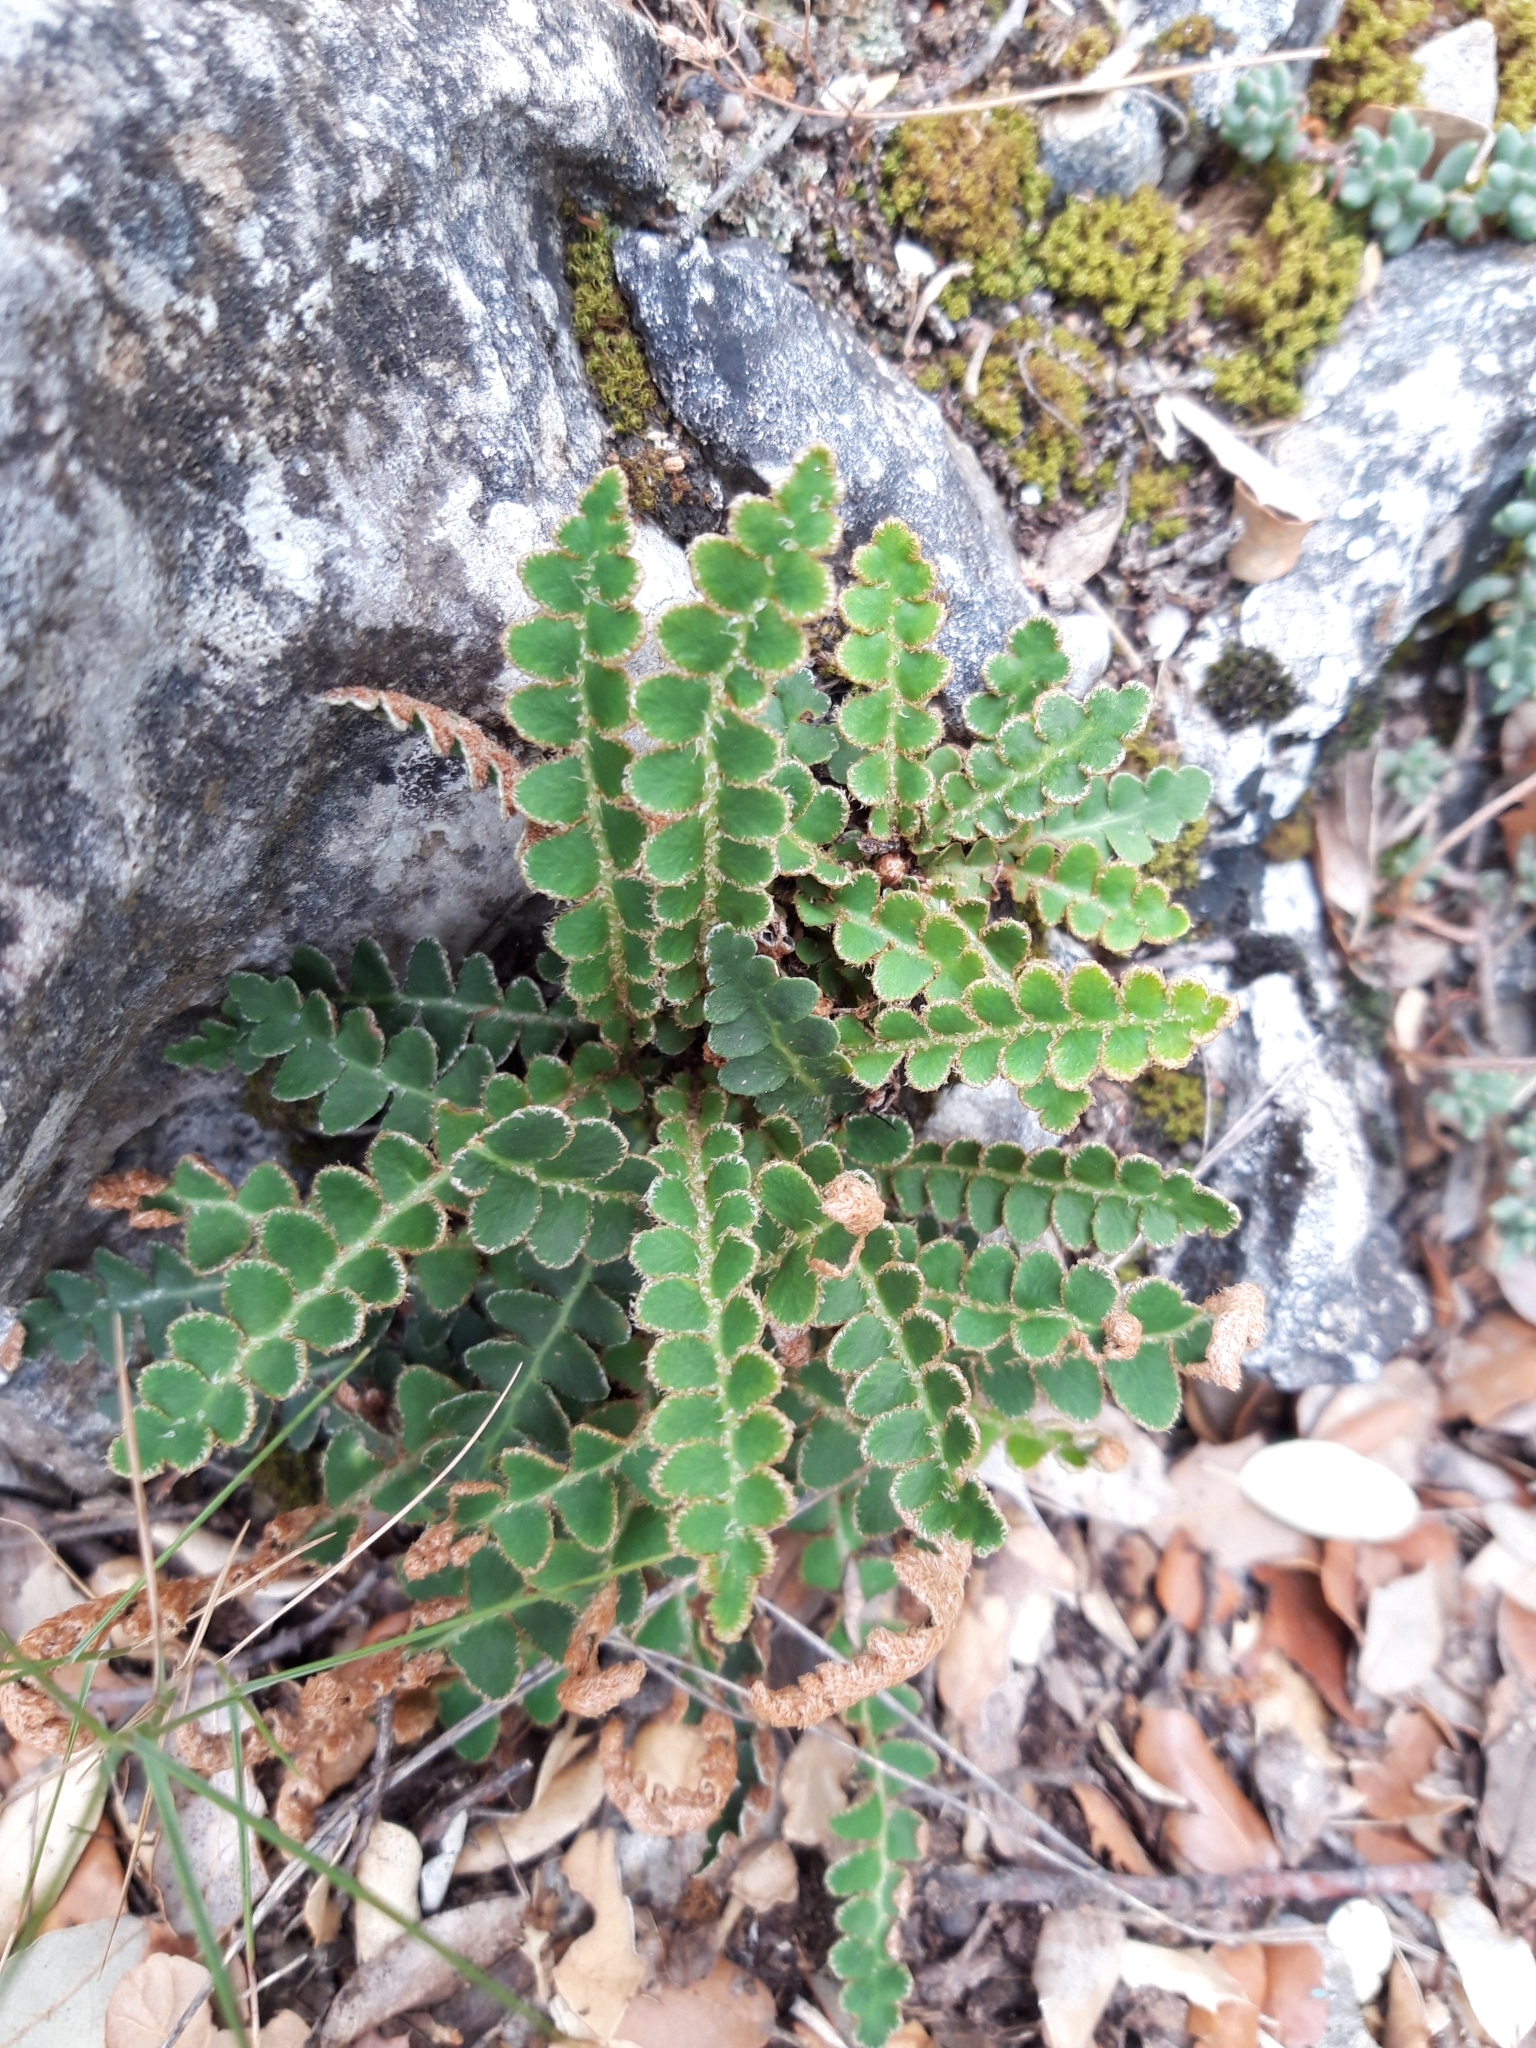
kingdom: Plantae
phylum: Tracheophyta
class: Polypodiopsida
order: Polypodiales
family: Aspleniaceae
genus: Asplenium
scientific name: Asplenium ceterach
